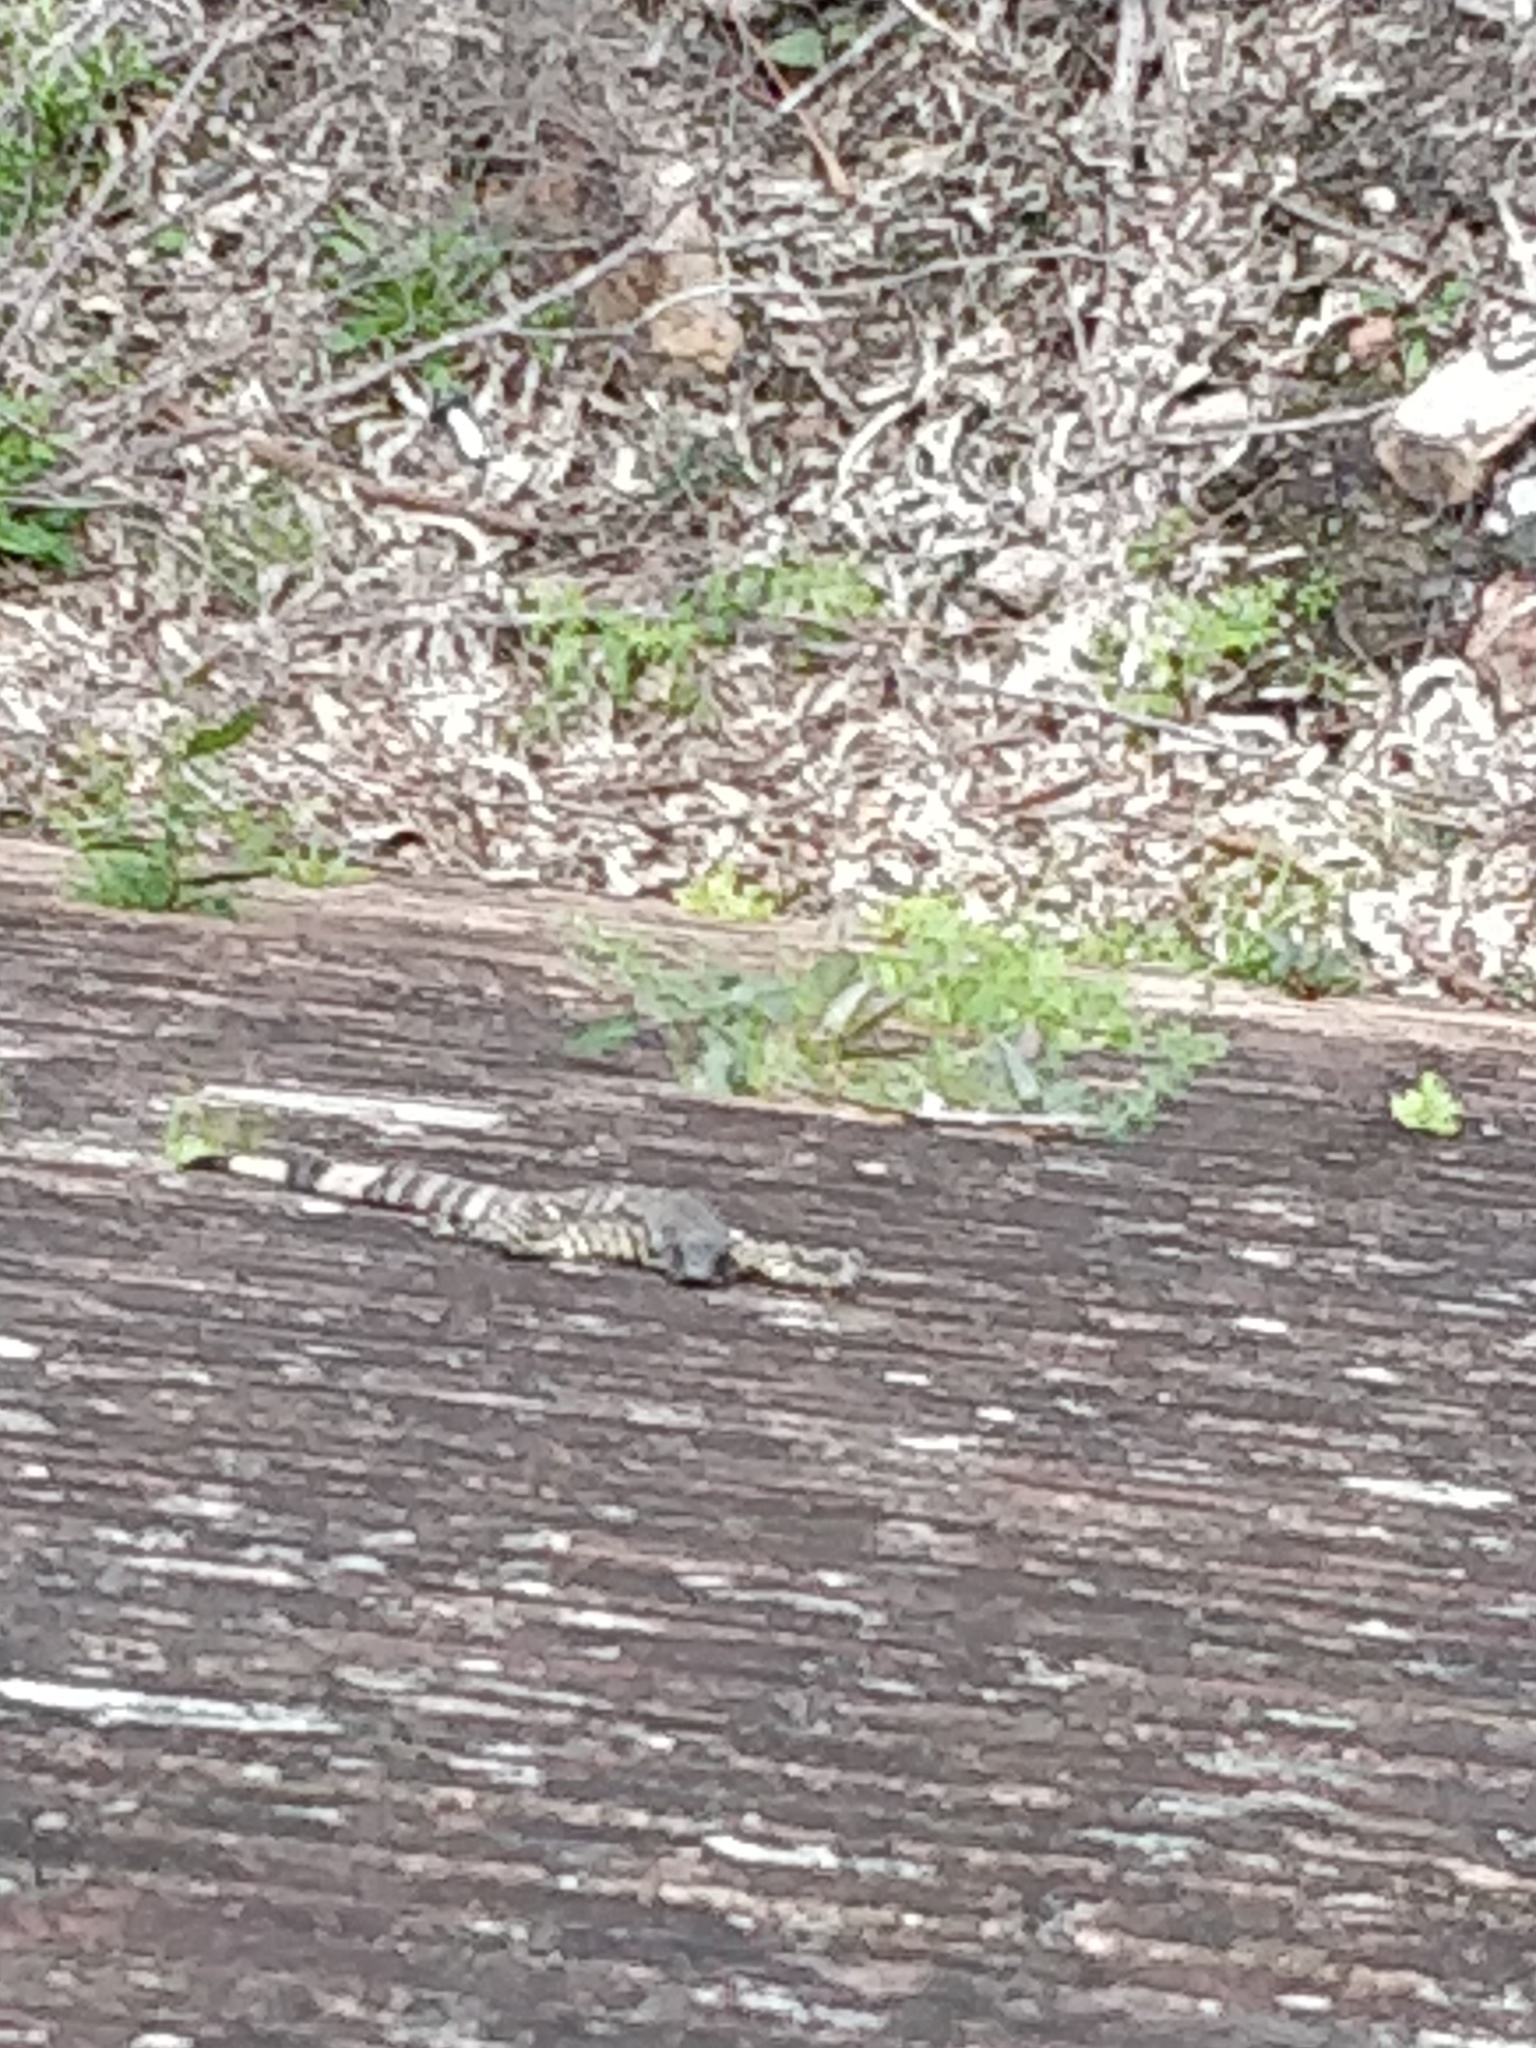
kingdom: Animalia
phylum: Chordata
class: Squamata
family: Varanidae
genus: Varanus
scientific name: Varanus varius
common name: Lace monitor
